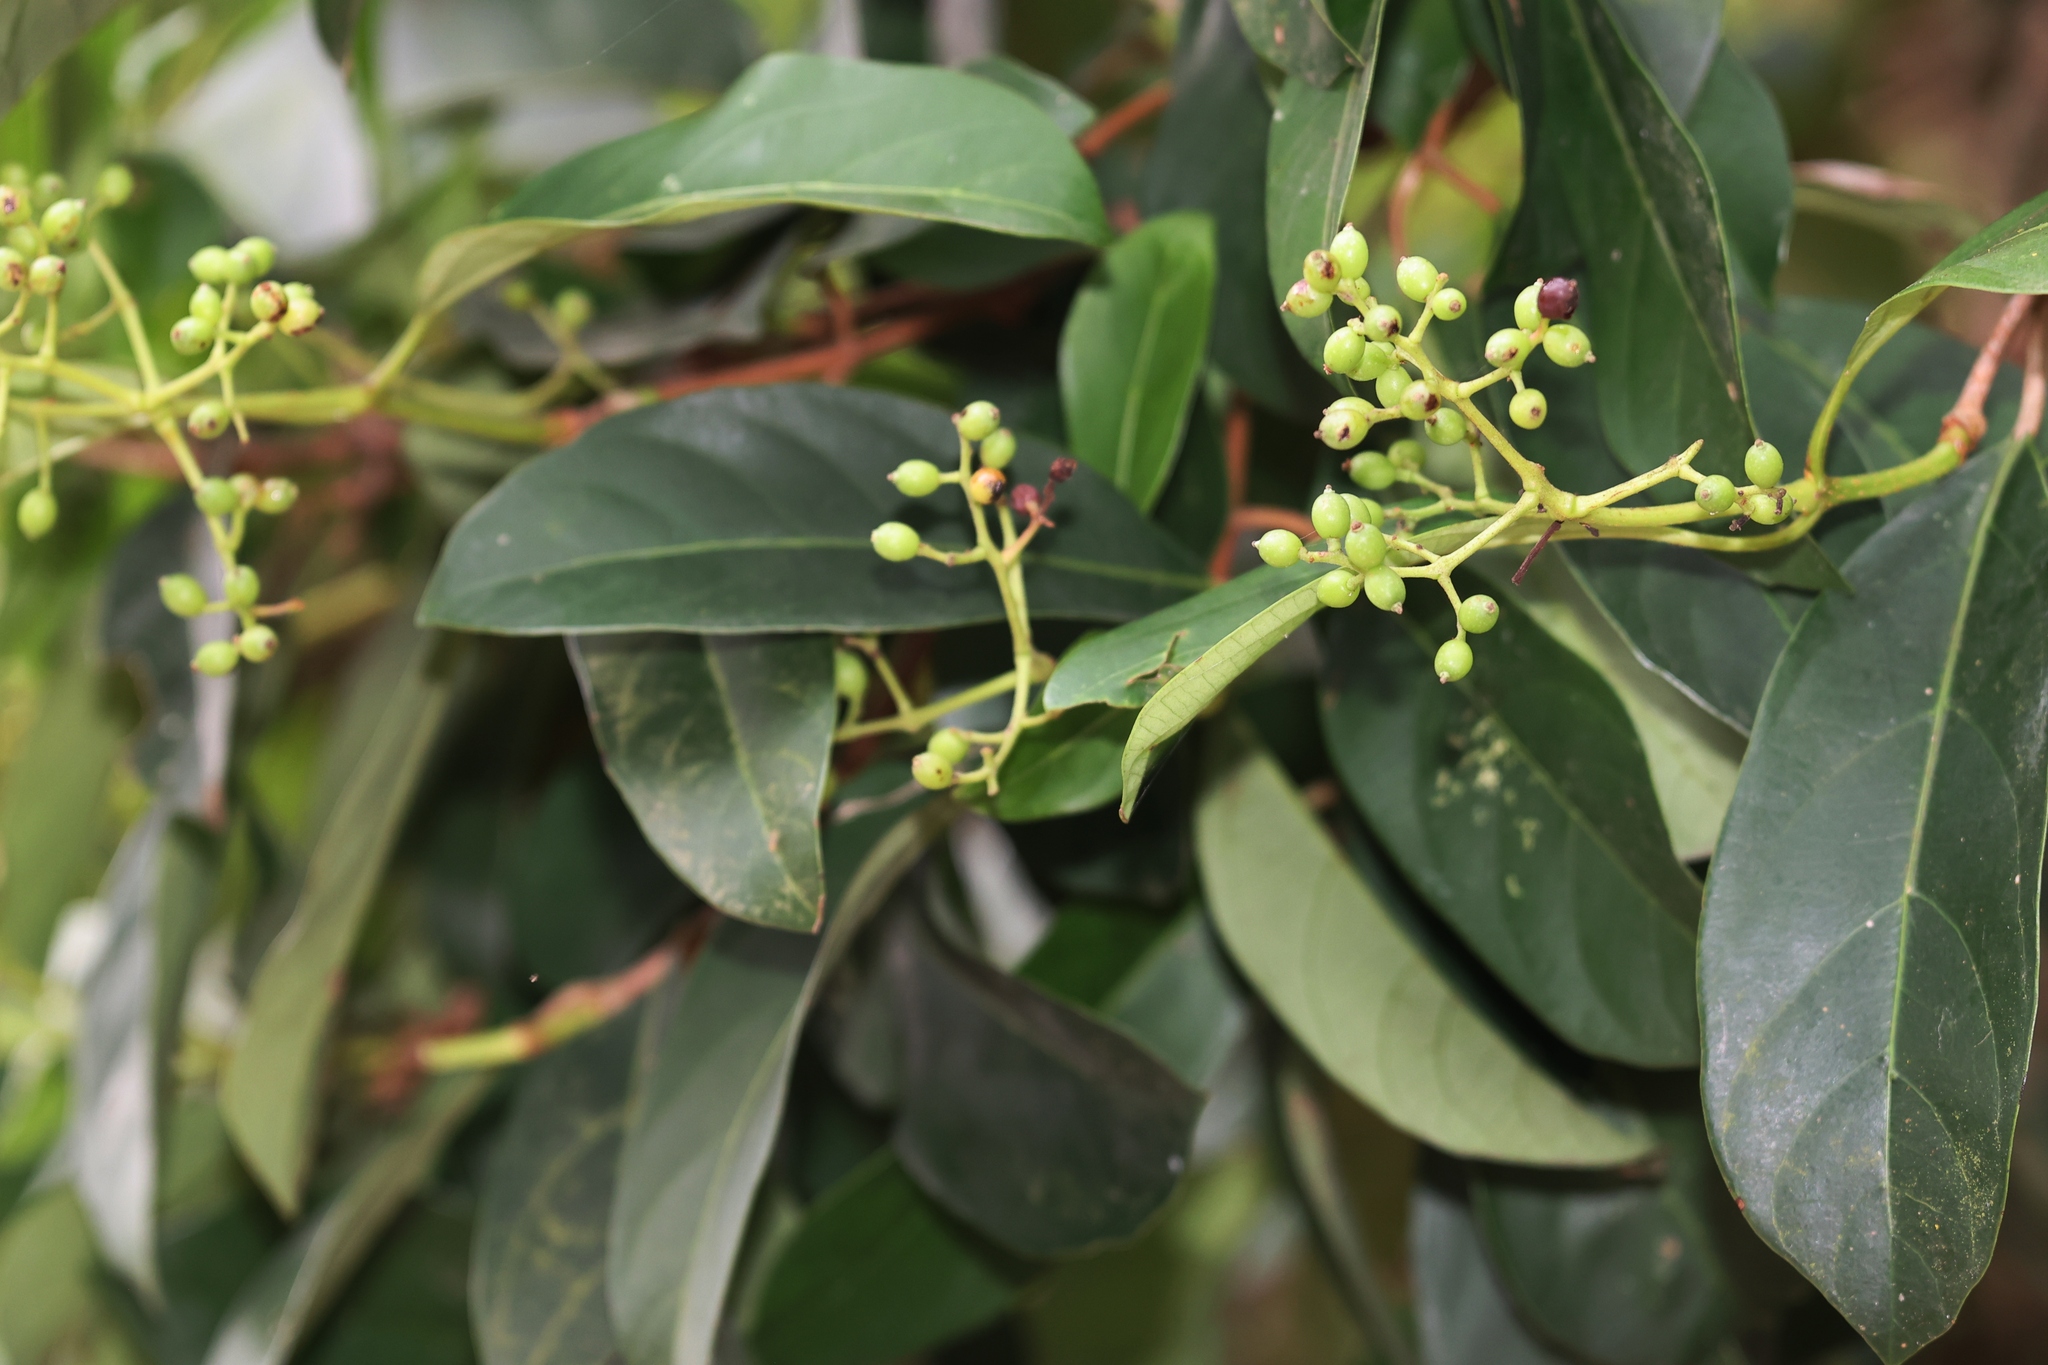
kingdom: Plantae
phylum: Tracheophyta
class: Magnoliopsida
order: Dipsacales
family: Viburnaceae
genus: Viburnum
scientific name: Viburnum odoratissimum
